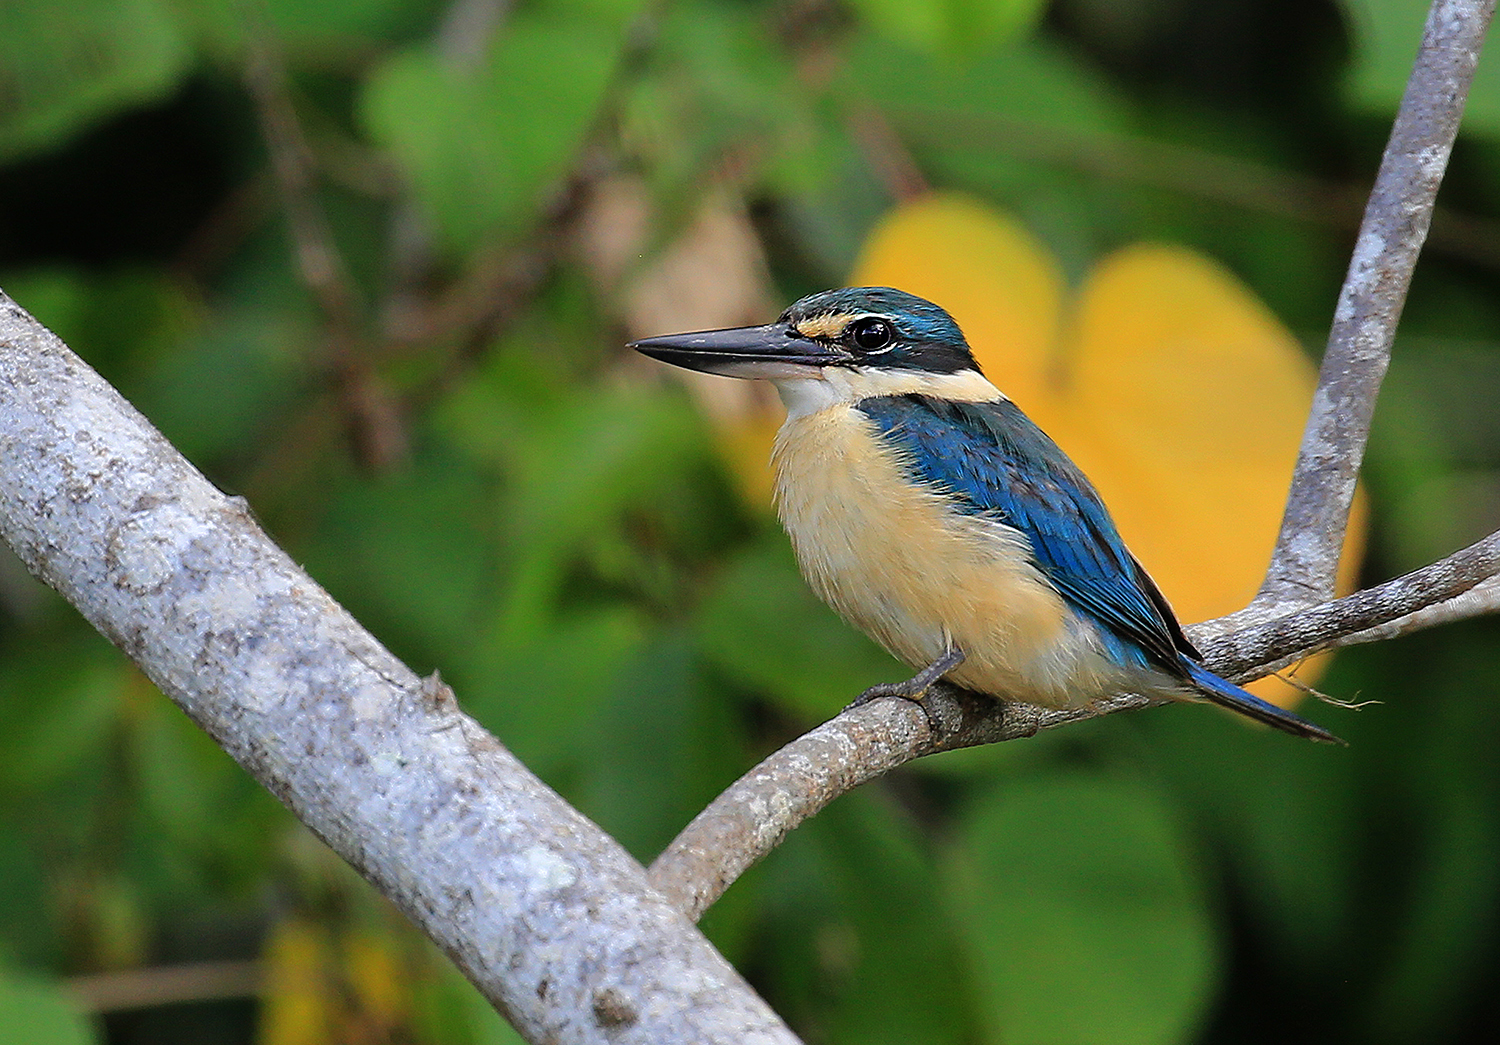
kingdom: Animalia
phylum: Chordata
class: Aves
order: Coraciiformes
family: Alcedinidae
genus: Todiramphus
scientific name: Todiramphus sanctus
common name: Sacred kingfisher
